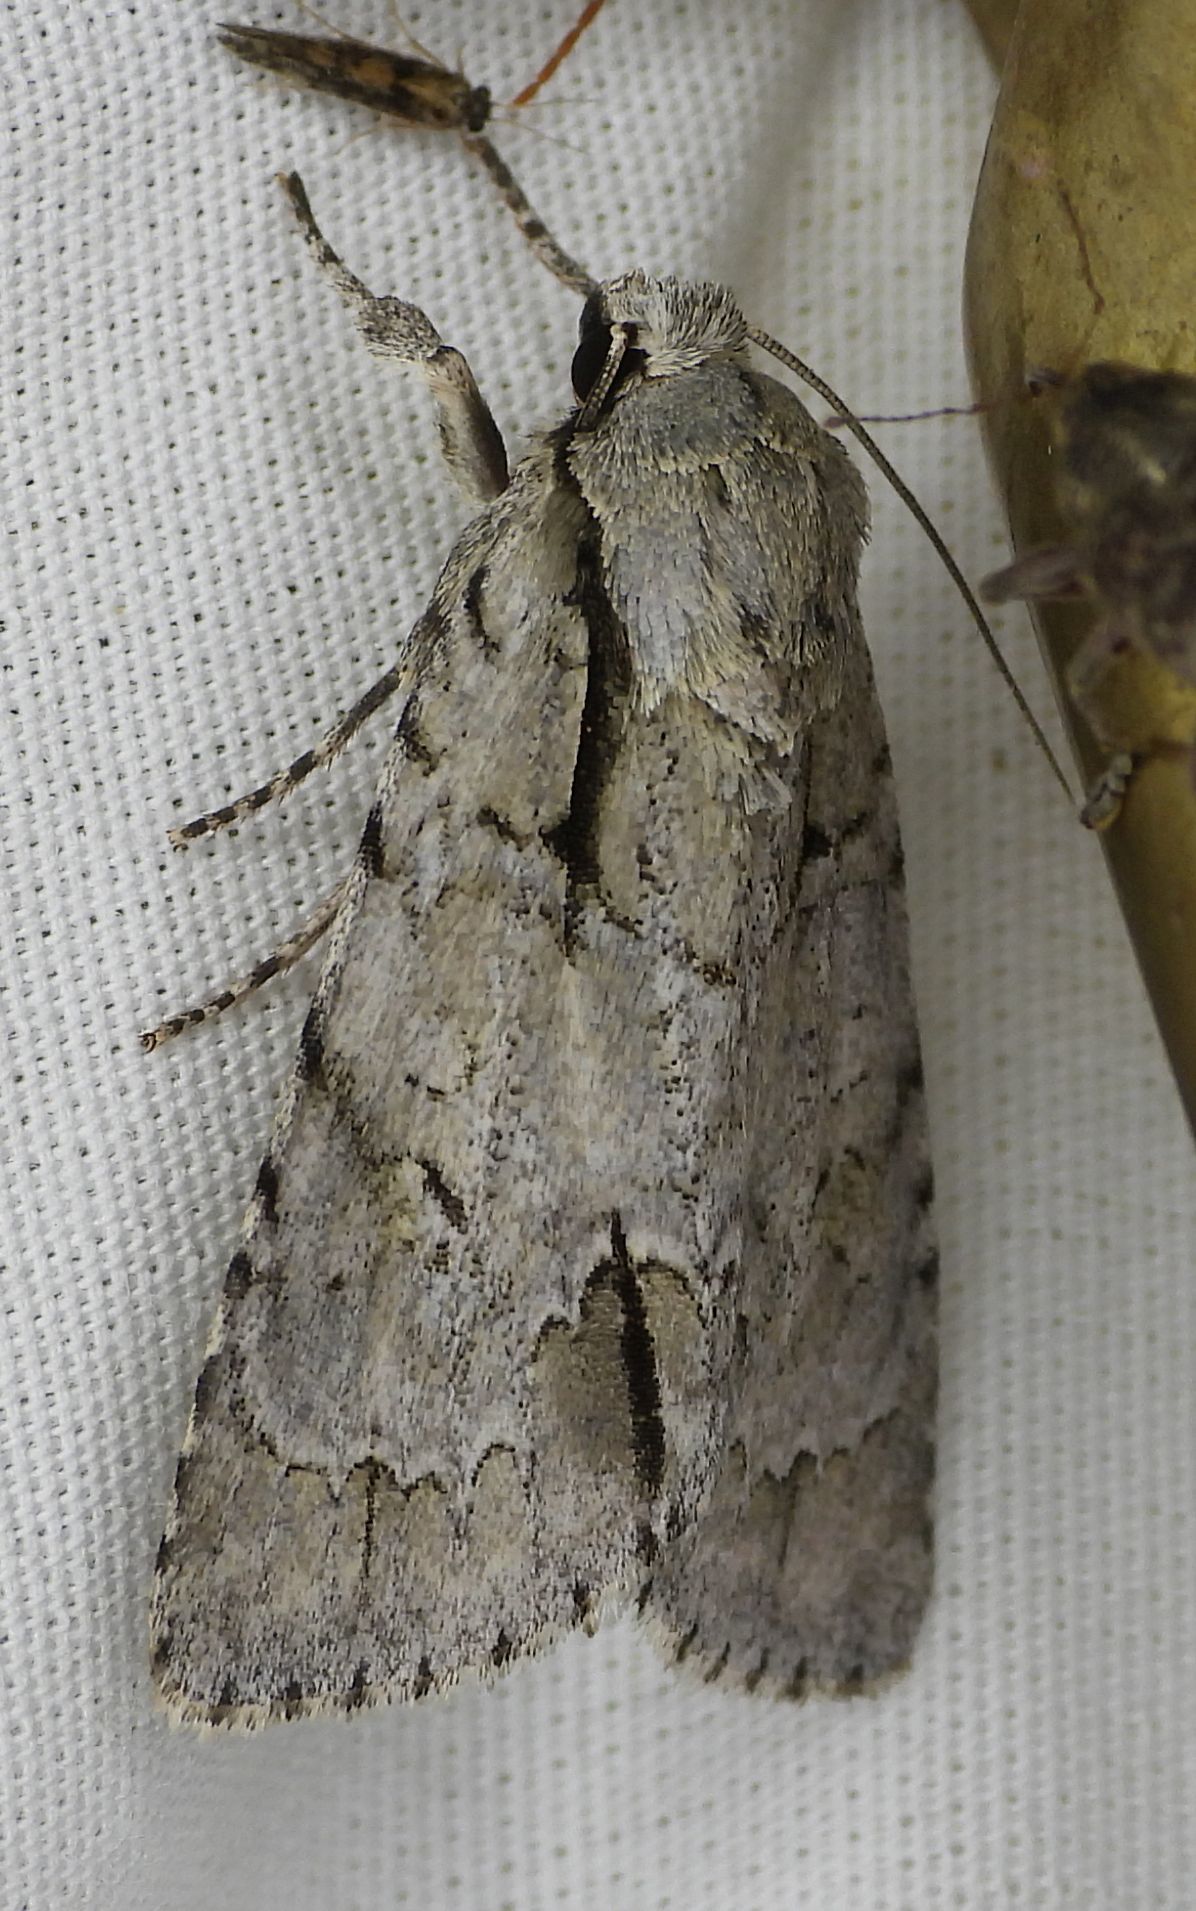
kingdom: Animalia
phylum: Arthropoda
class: Insecta
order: Lepidoptera
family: Noctuidae
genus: Acronicta
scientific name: Acronicta interrupta
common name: Interrupted dagger
